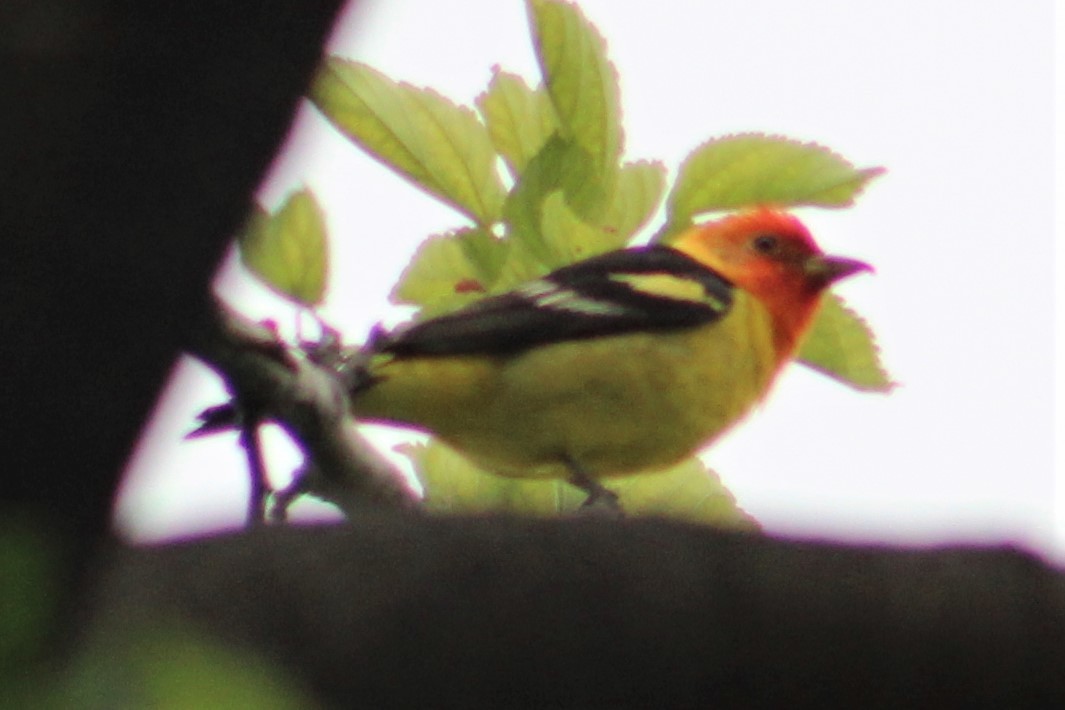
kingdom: Animalia
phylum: Chordata
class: Aves
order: Passeriformes
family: Cardinalidae
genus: Piranga
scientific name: Piranga ludoviciana
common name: Western tanager
